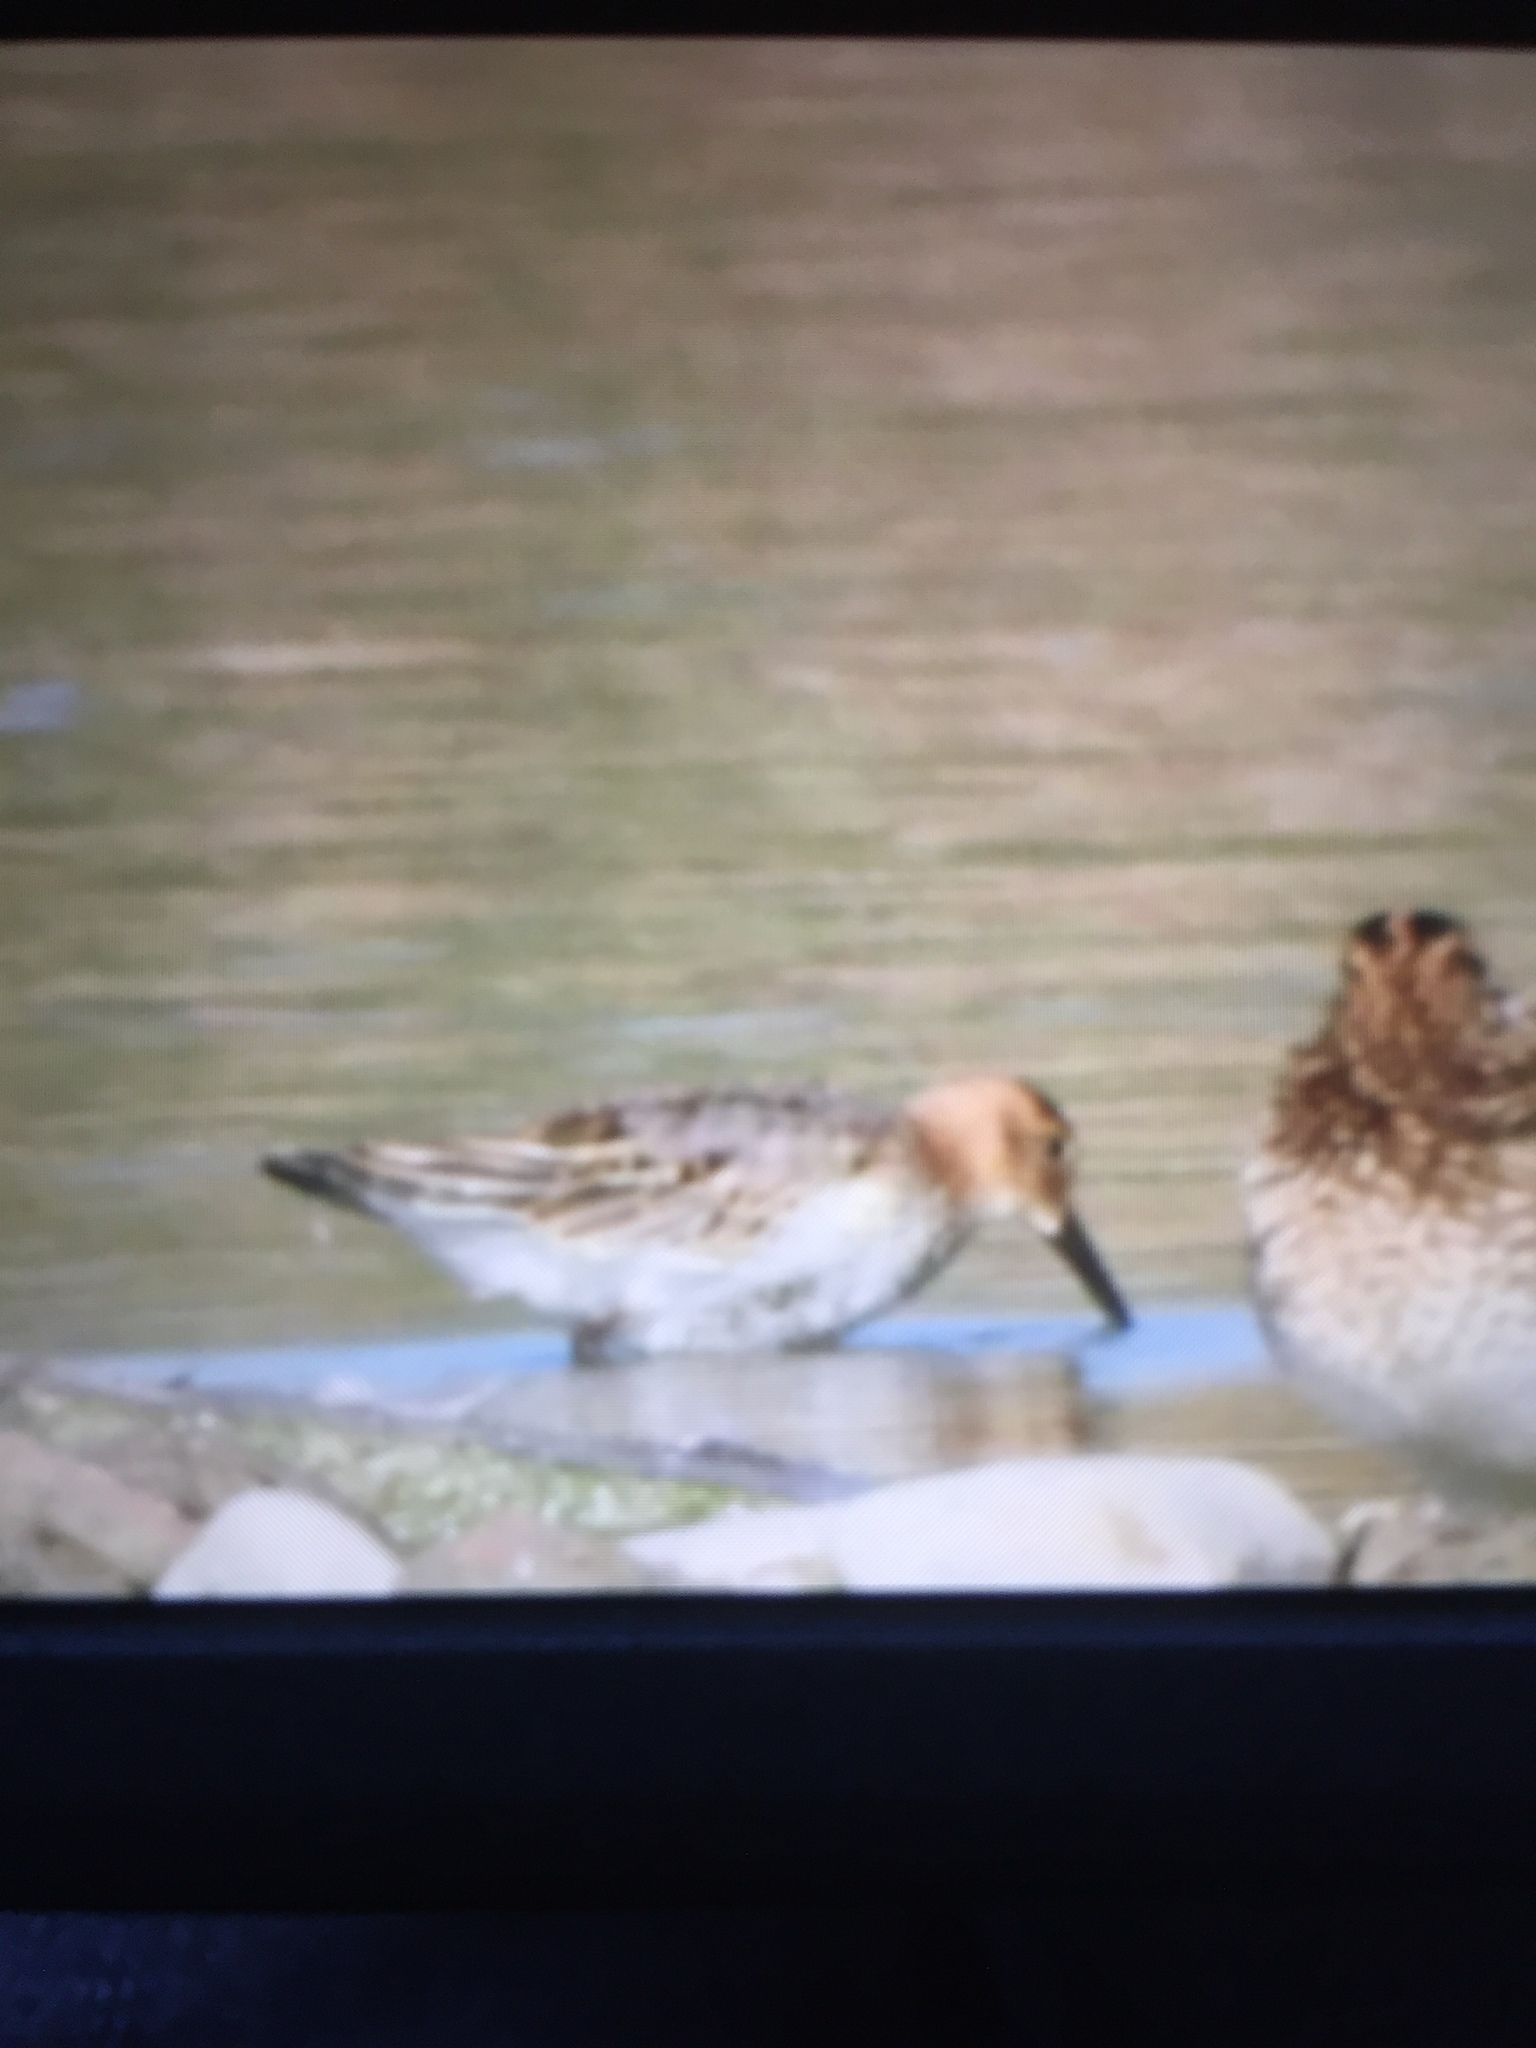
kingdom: Animalia
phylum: Chordata
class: Aves
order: Charadriiformes
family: Scolopacidae
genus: Calidris
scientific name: Calidris alpina
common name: Dunlin
